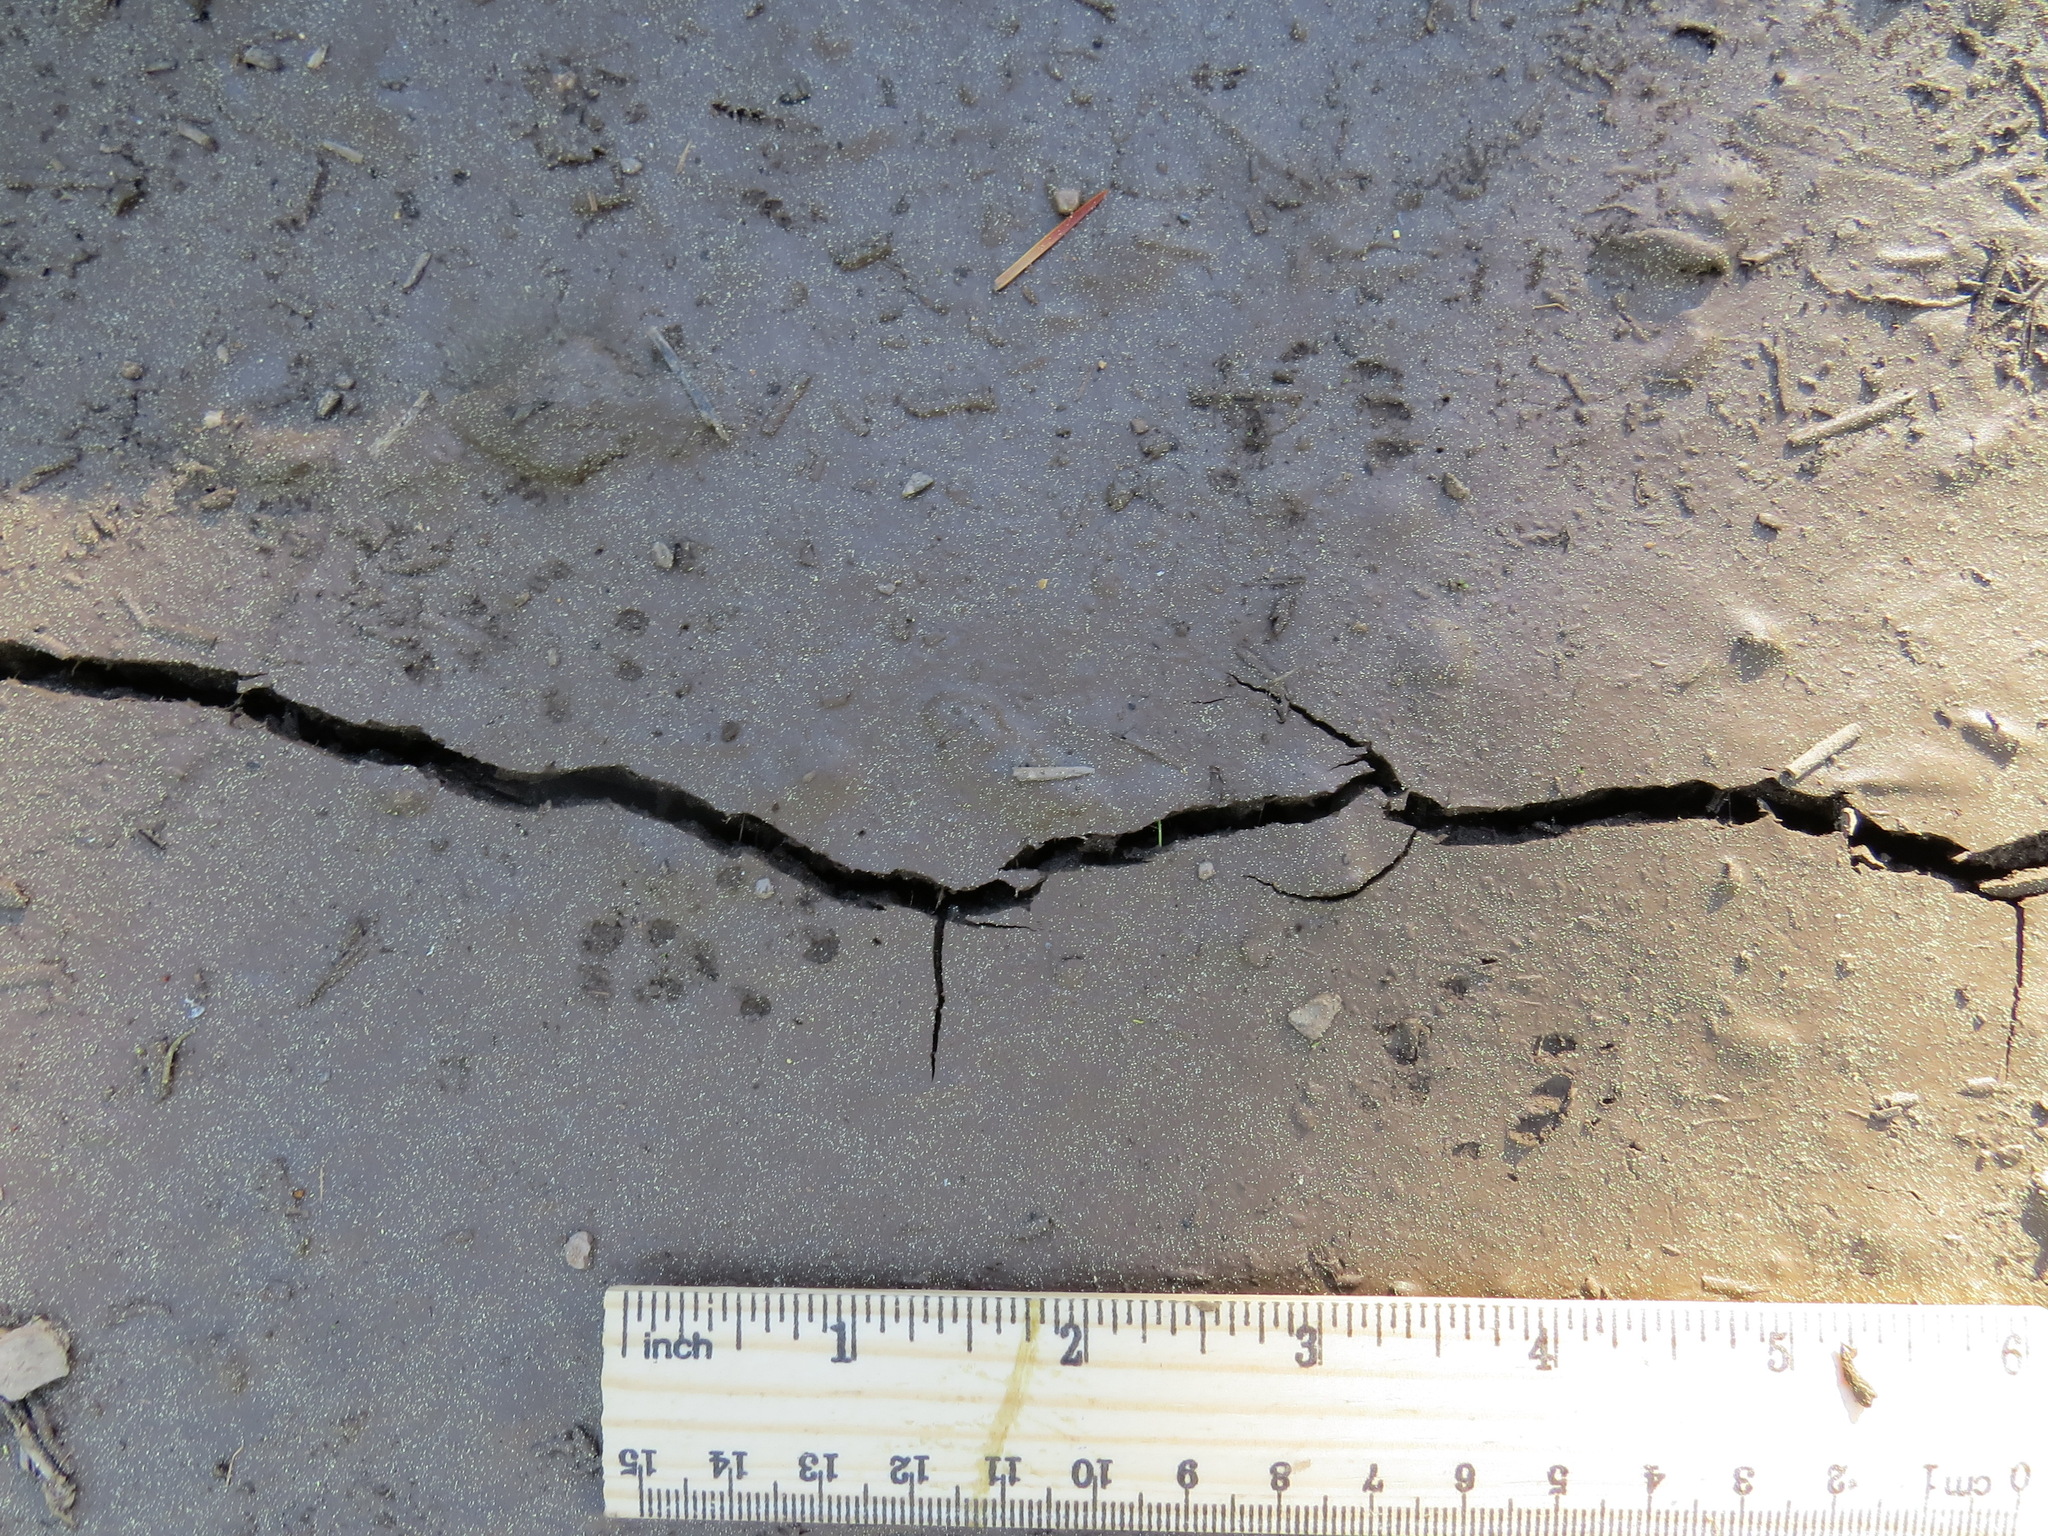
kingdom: Animalia
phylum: Chordata
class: Mammalia
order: Rodentia
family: Sciuridae
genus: Tamiasciurus
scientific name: Tamiasciurus douglasii
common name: Douglas's squirrel
